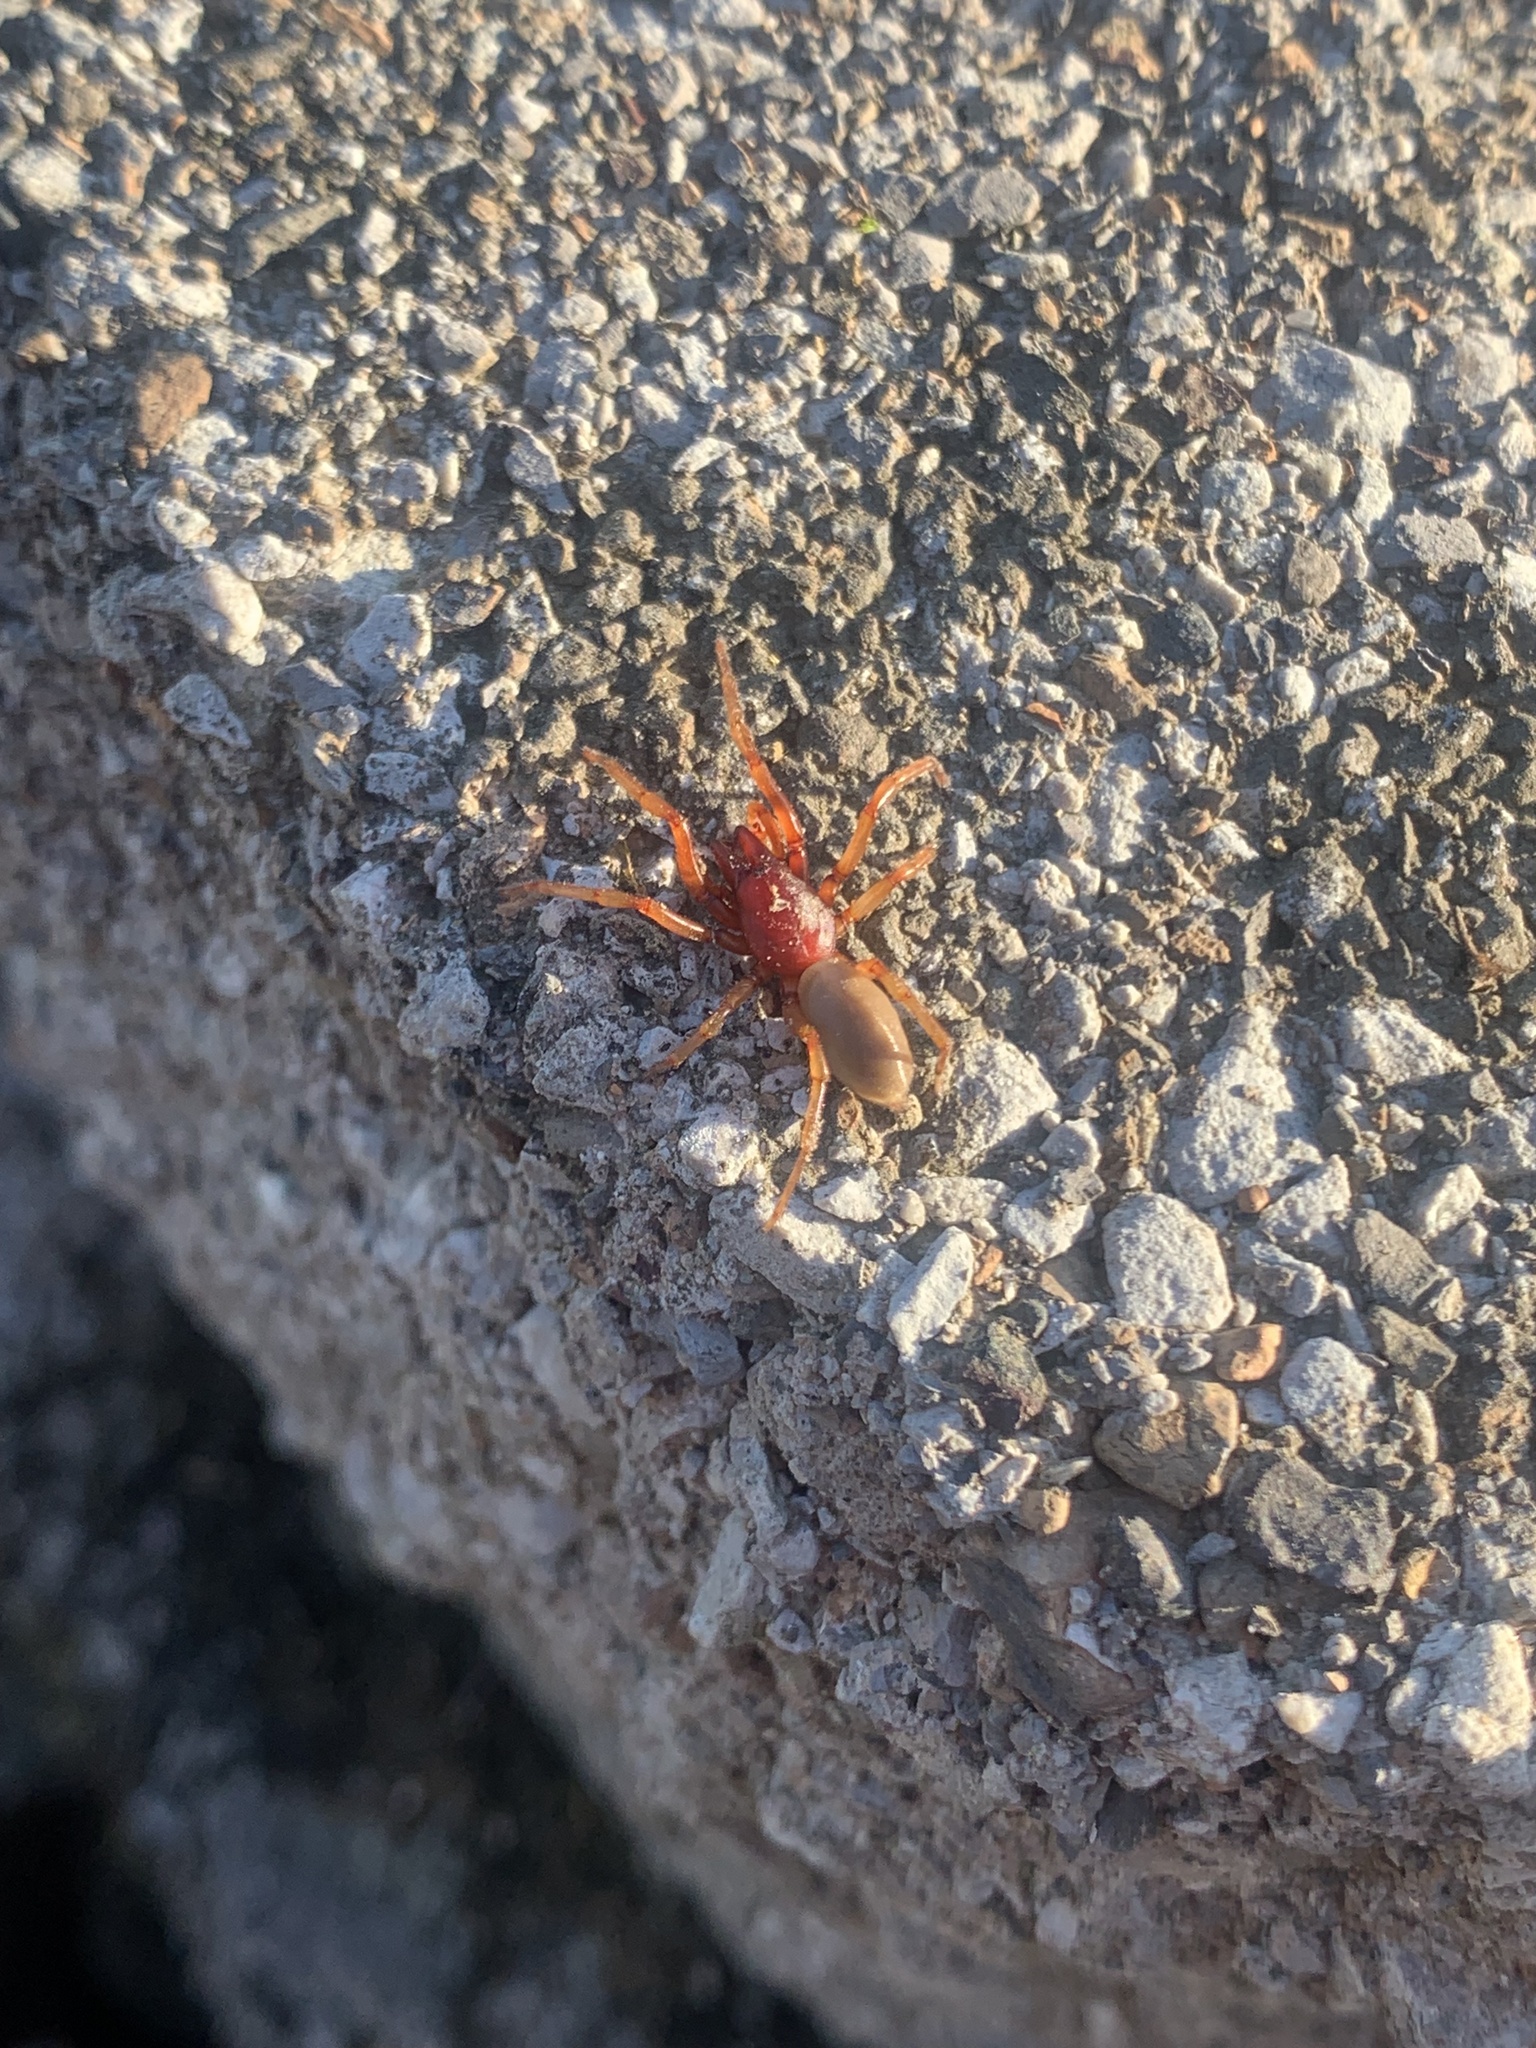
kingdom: Animalia
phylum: Arthropoda
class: Arachnida
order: Araneae
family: Dysderidae
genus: Dysdera
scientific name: Dysdera crocata
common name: Woodlouse spider
